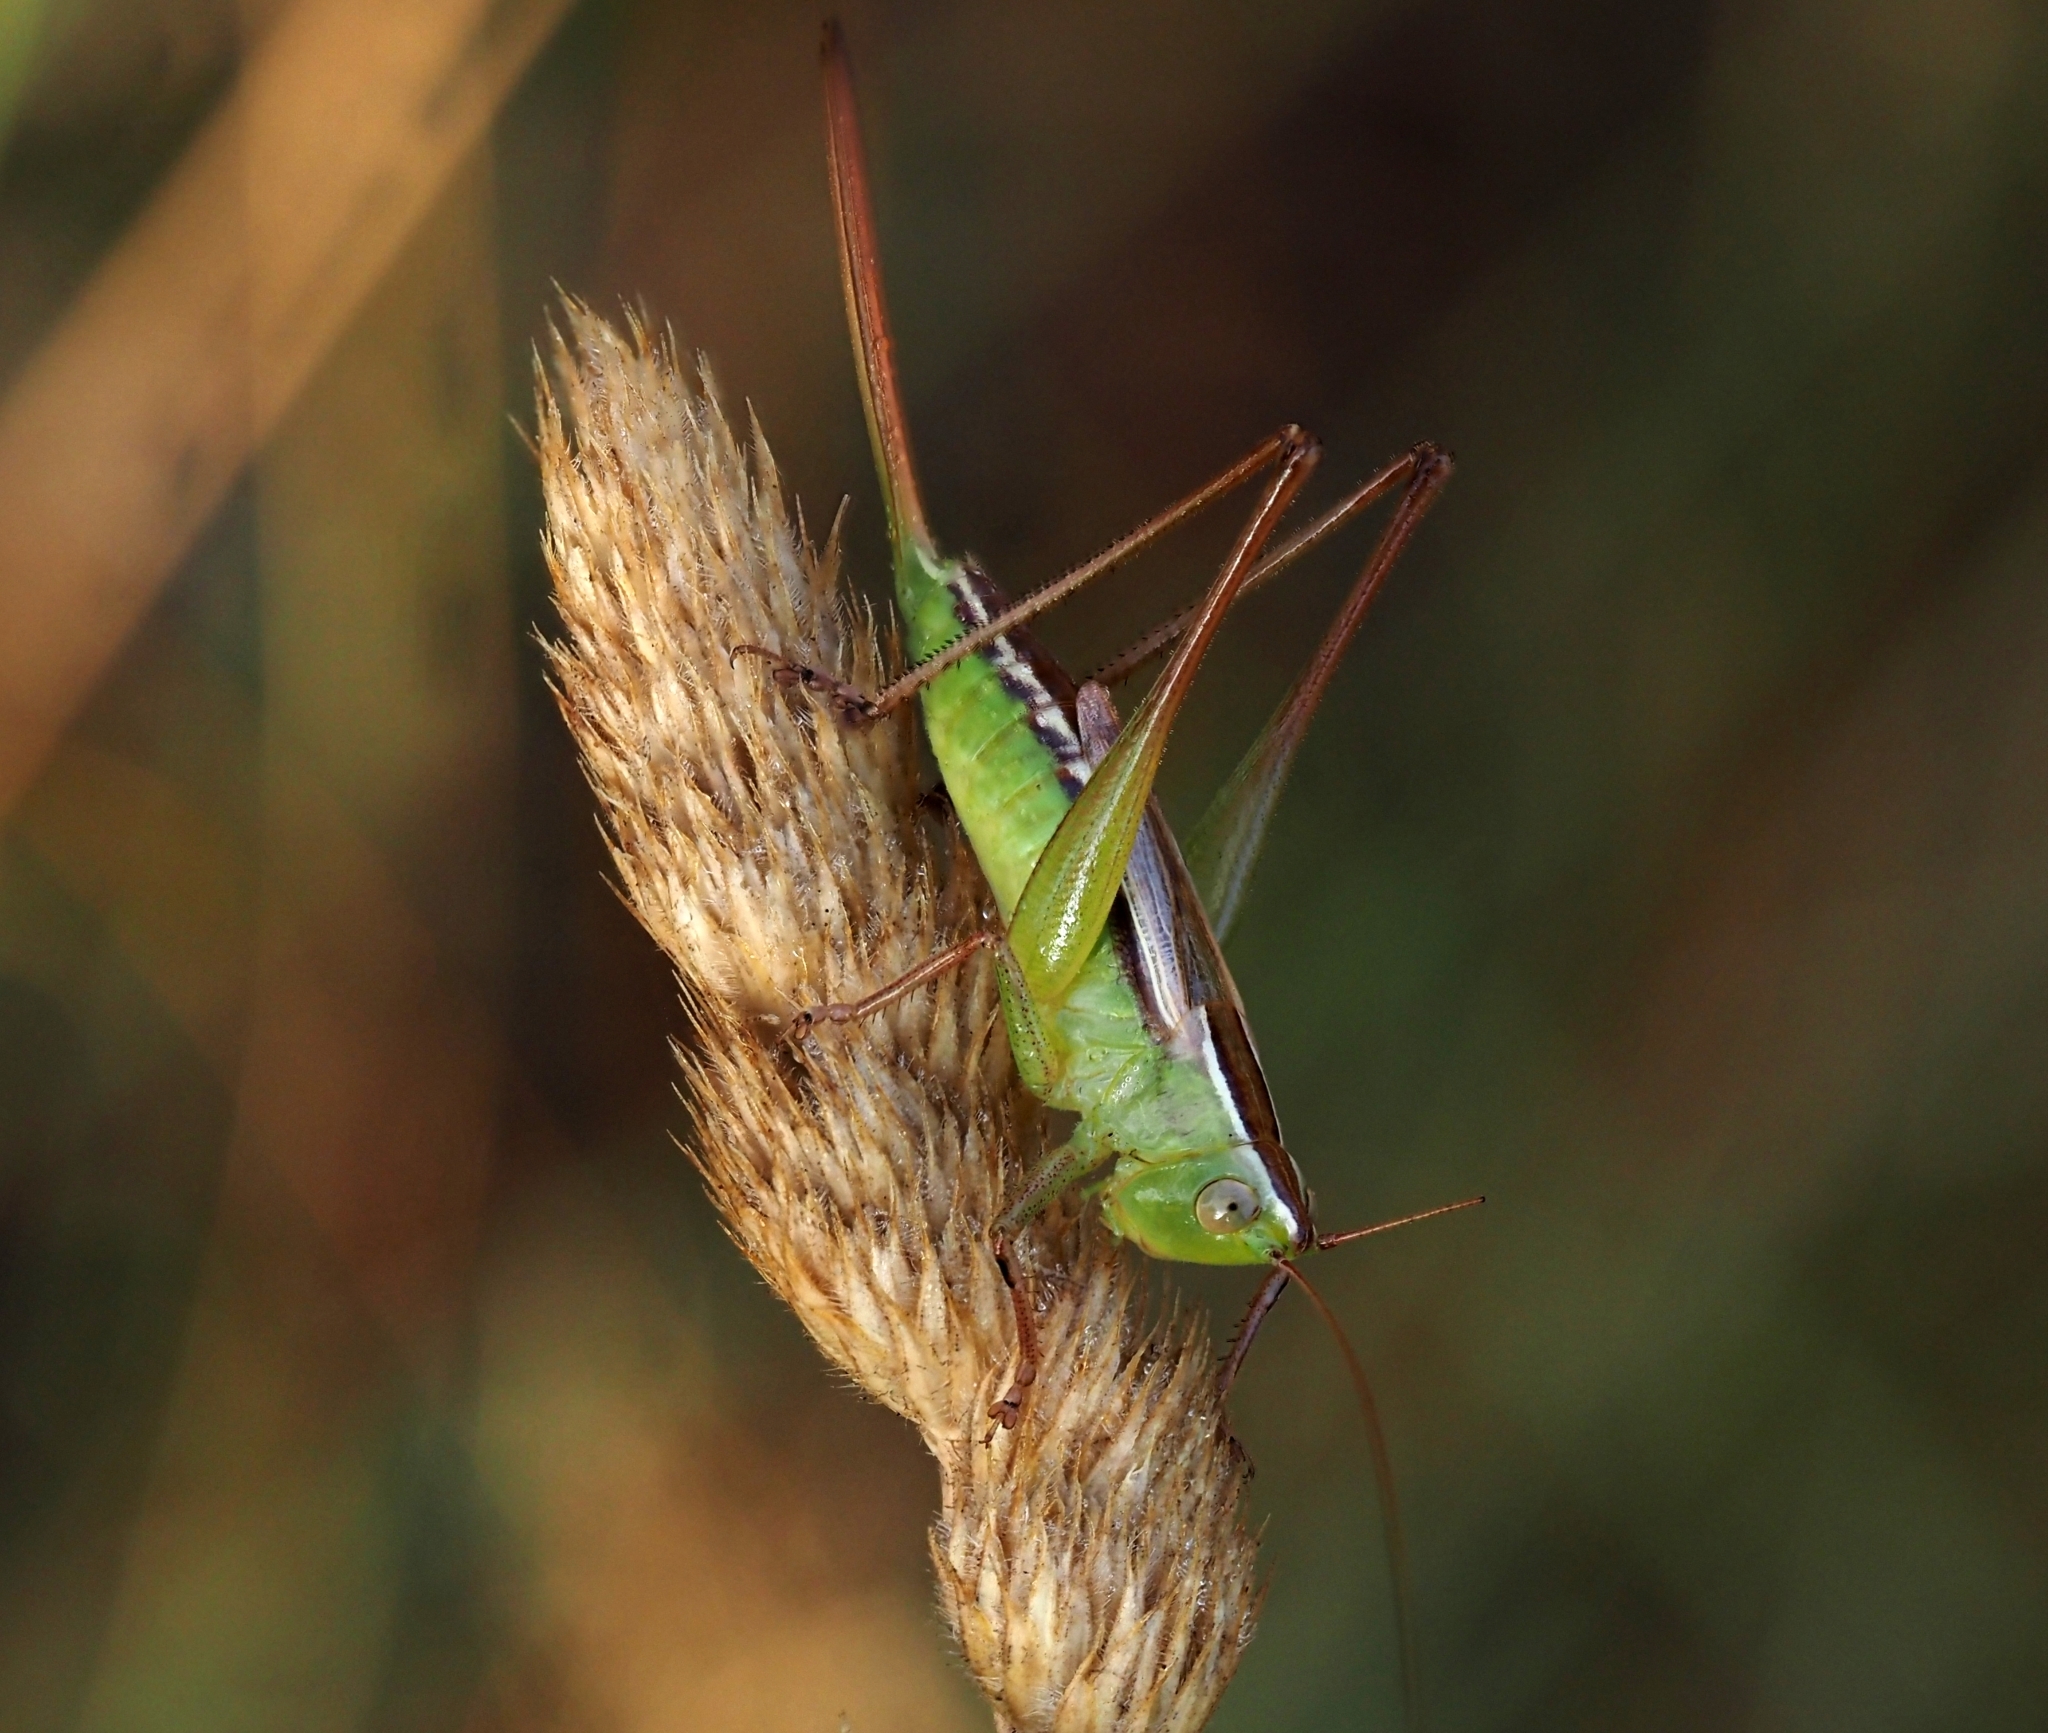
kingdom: Animalia
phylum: Arthropoda
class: Insecta
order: Orthoptera
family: Tettigoniidae
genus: Conocephalus
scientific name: Conocephalus albescens
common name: Whitish meadow katydid
